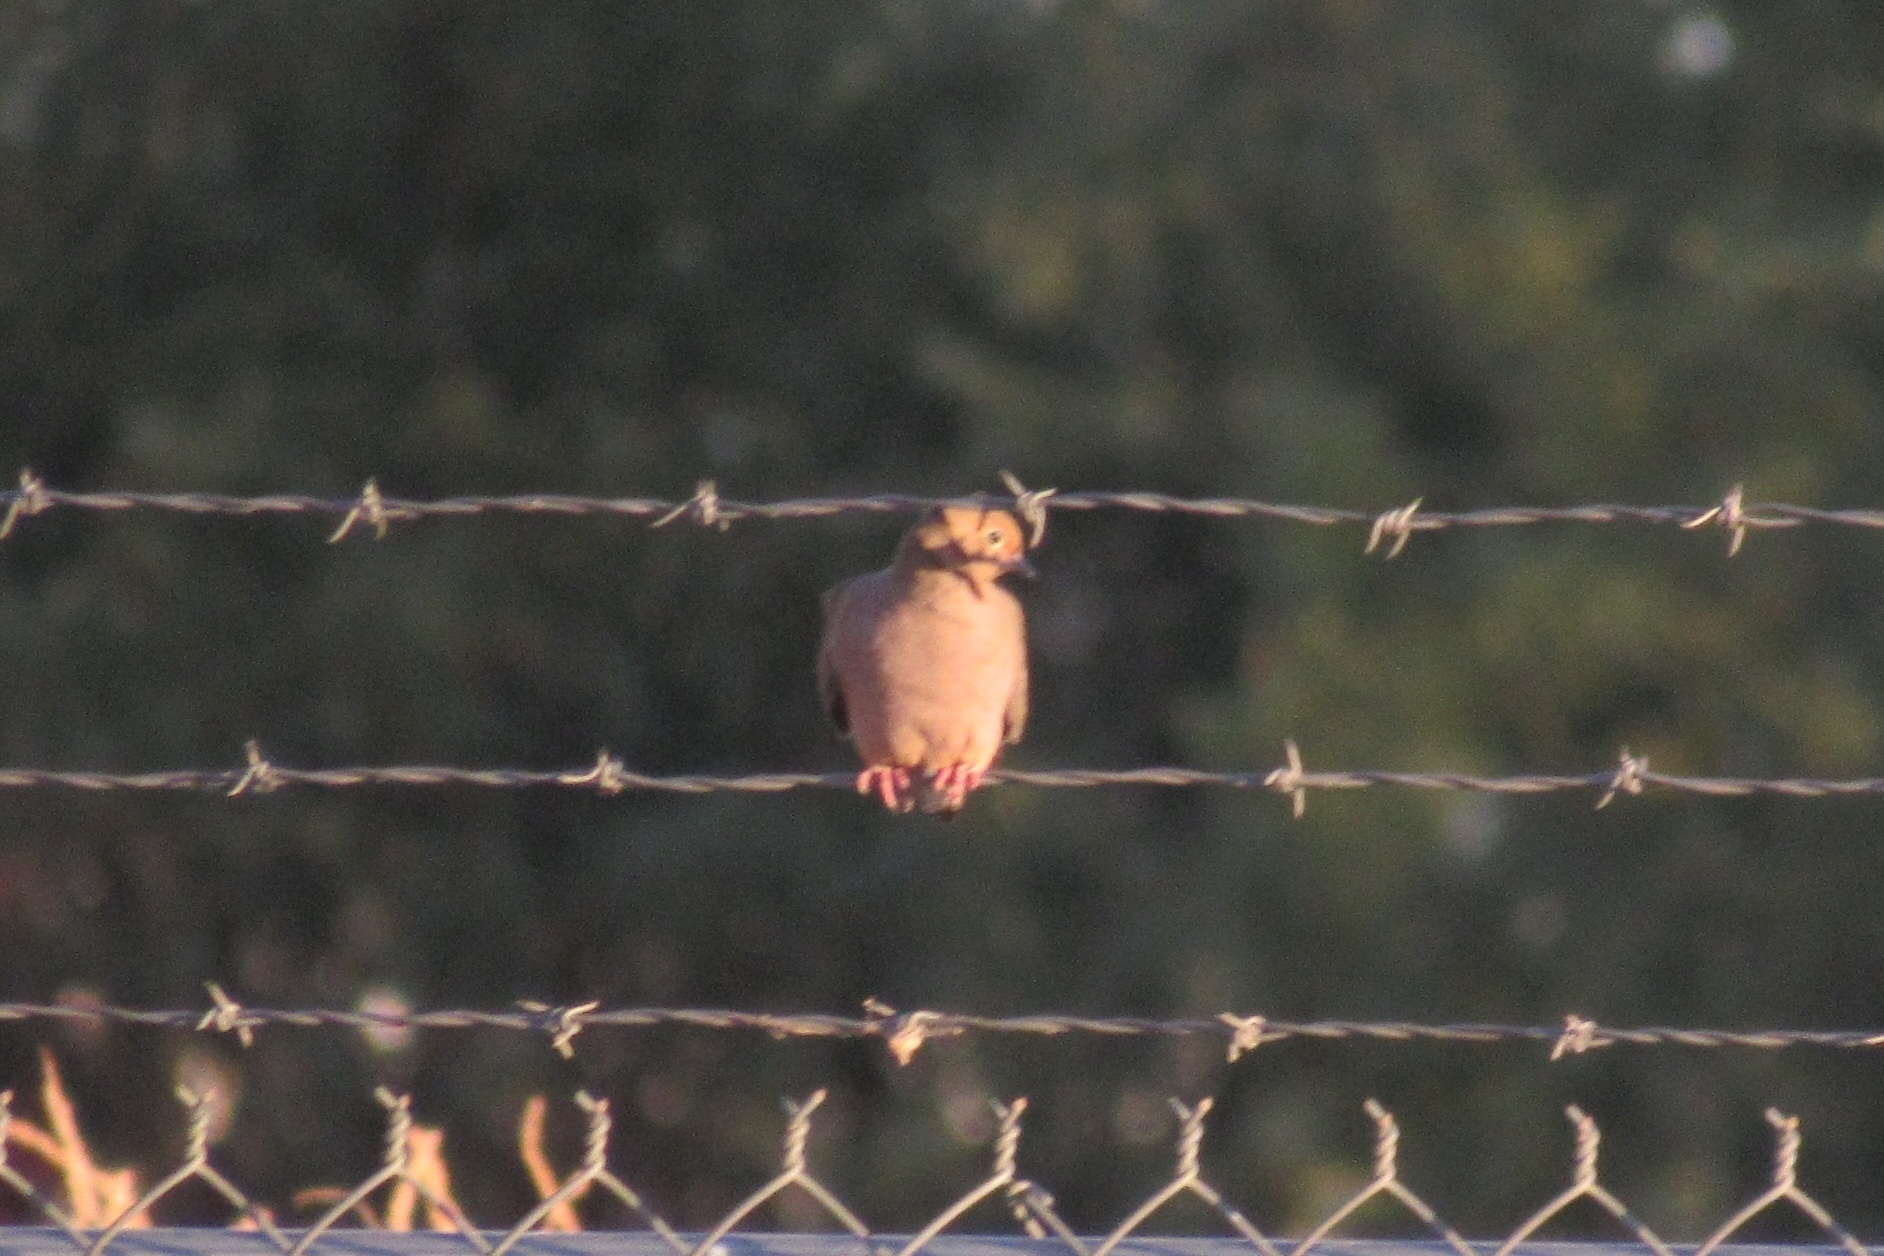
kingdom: Animalia
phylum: Chordata
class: Aves
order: Columbiformes
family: Columbidae
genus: Zenaida
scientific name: Zenaida macroura
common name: Mourning dove
